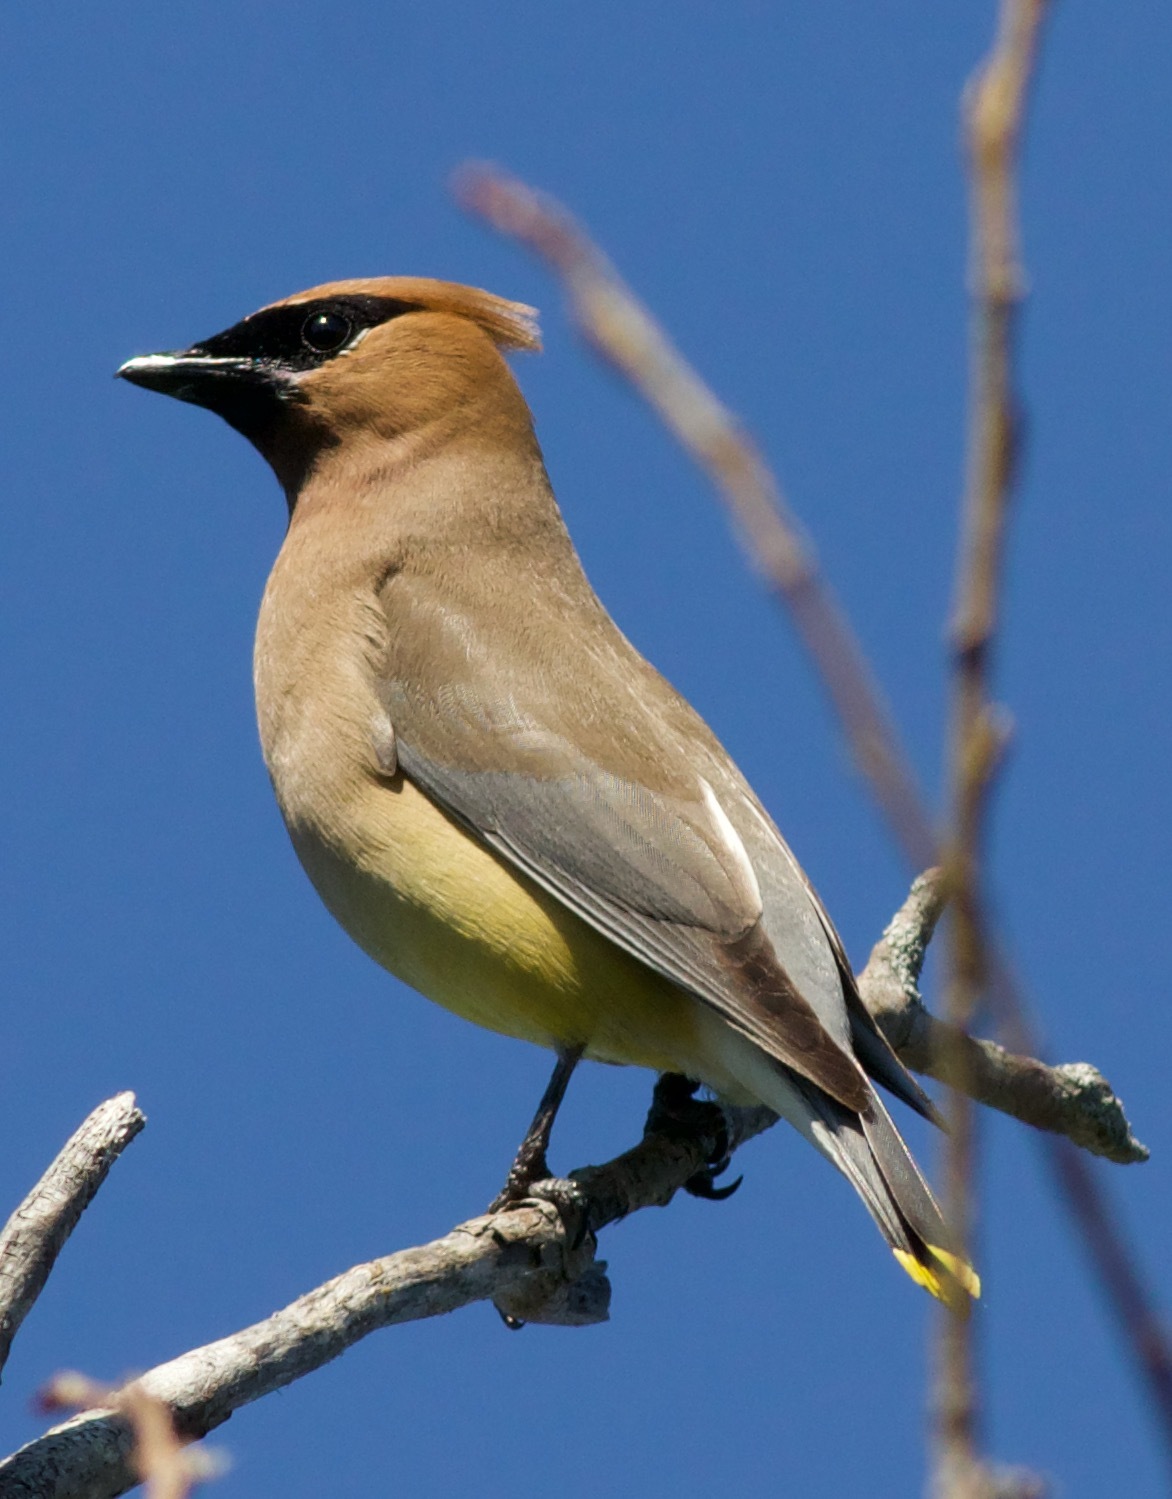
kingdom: Animalia
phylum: Chordata
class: Aves
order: Passeriformes
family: Bombycillidae
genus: Bombycilla
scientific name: Bombycilla cedrorum
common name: Cedar waxwing
